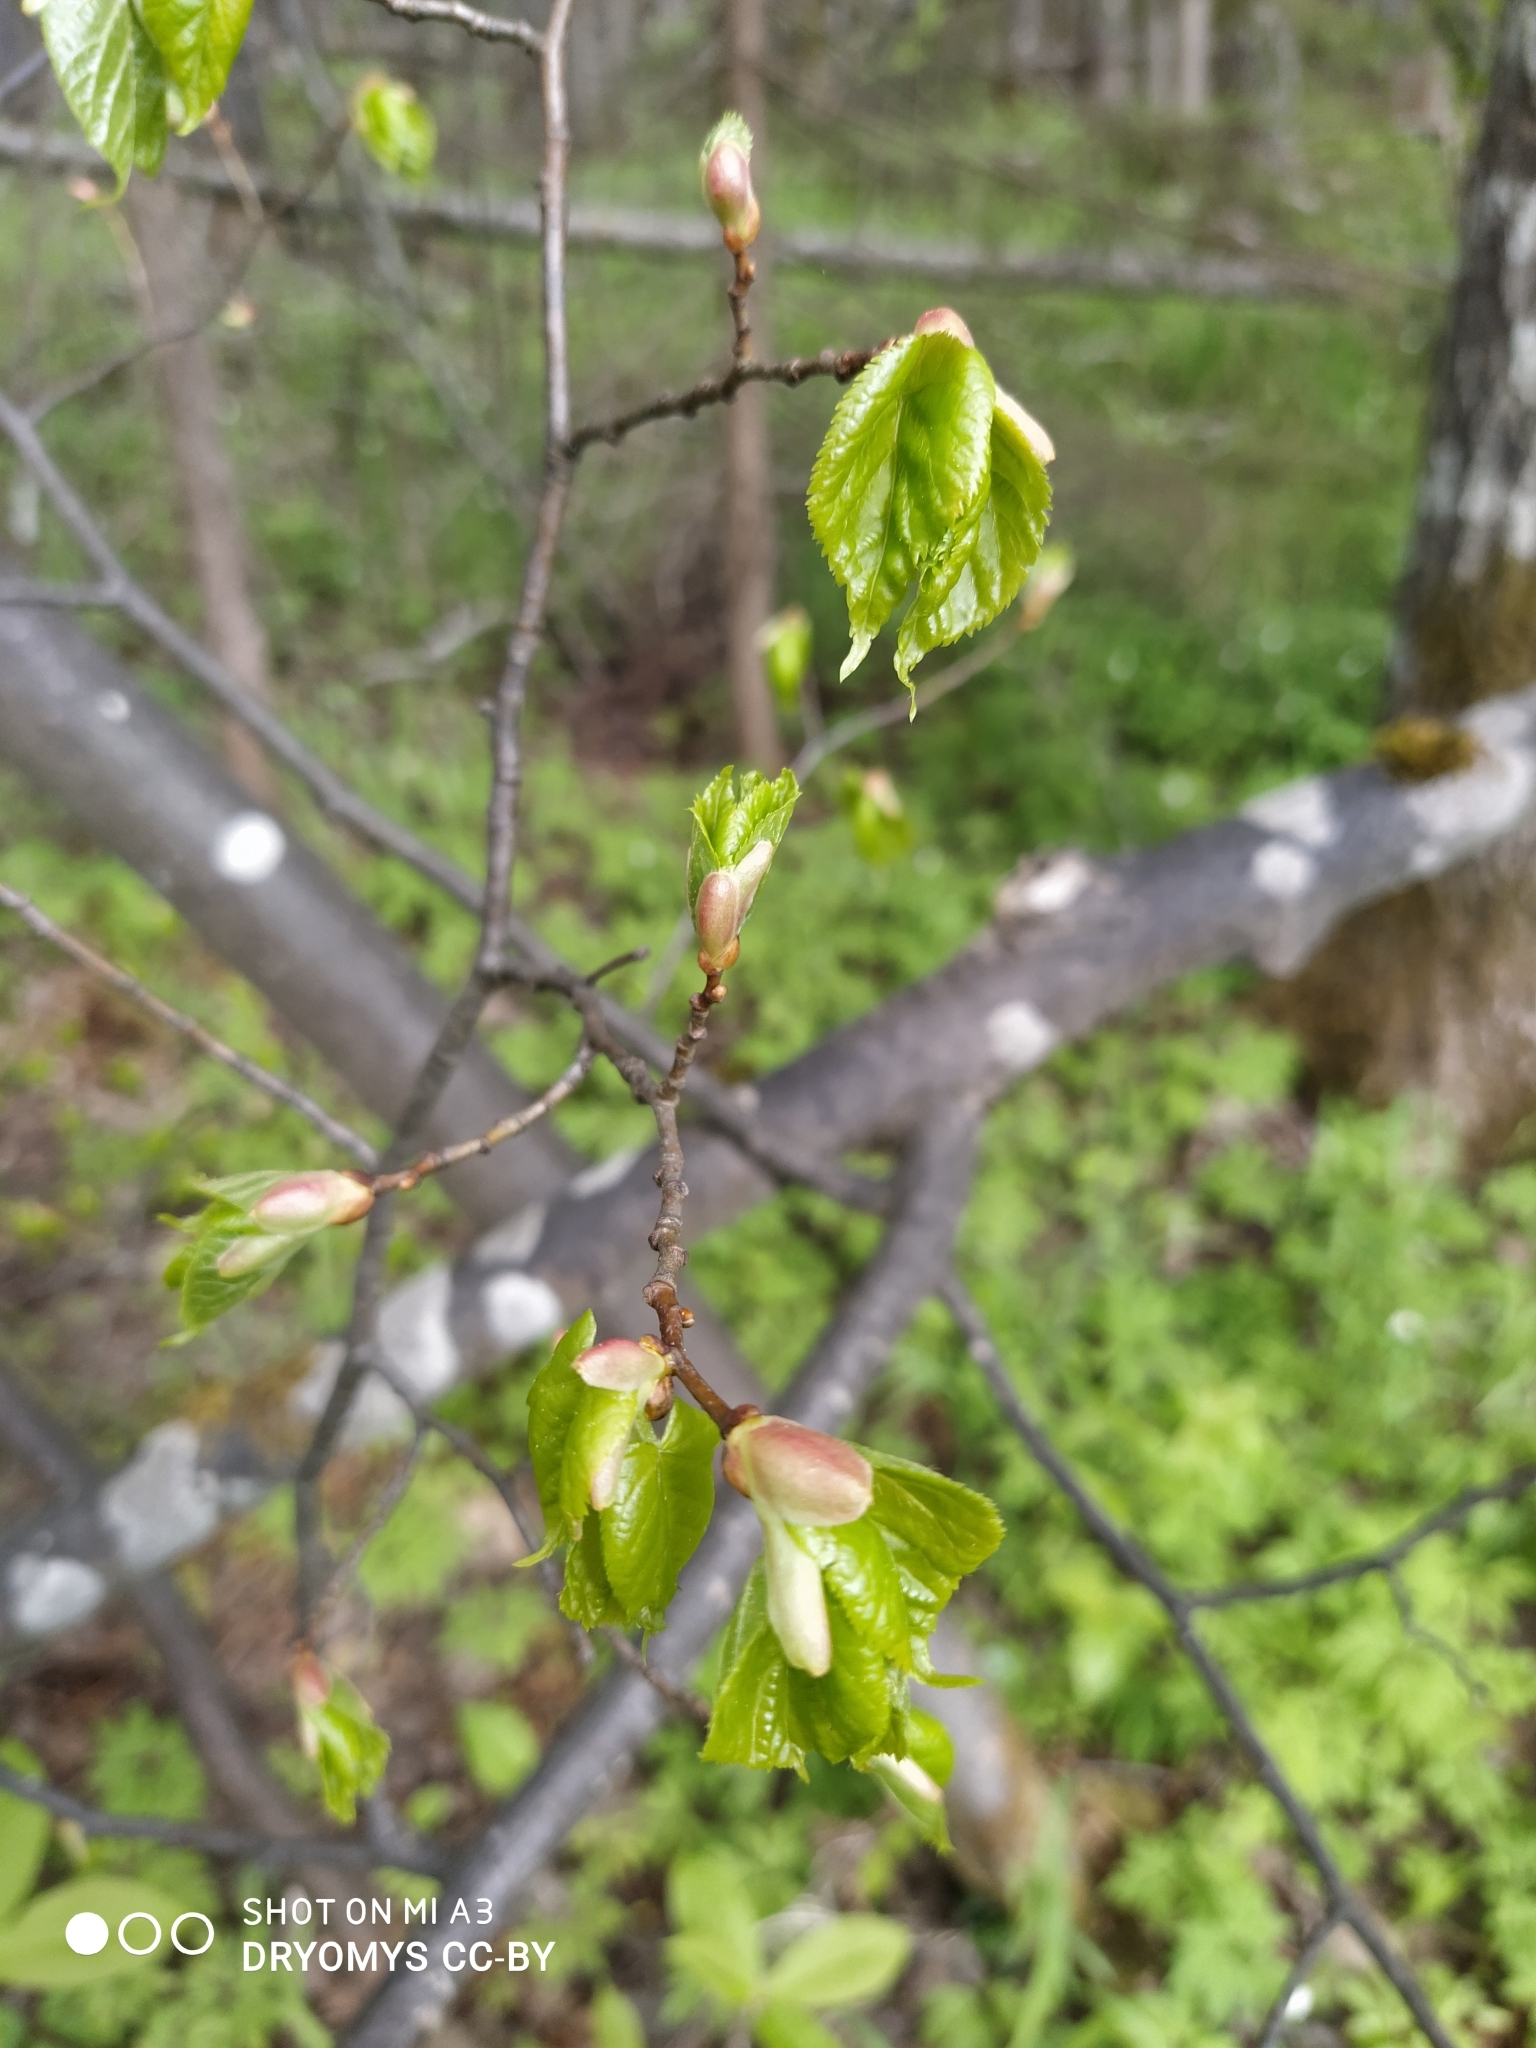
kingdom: Plantae
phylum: Tracheophyta
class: Magnoliopsida
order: Malvales
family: Malvaceae
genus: Tilia
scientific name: Tilia cordata
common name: Small-leaved lime
